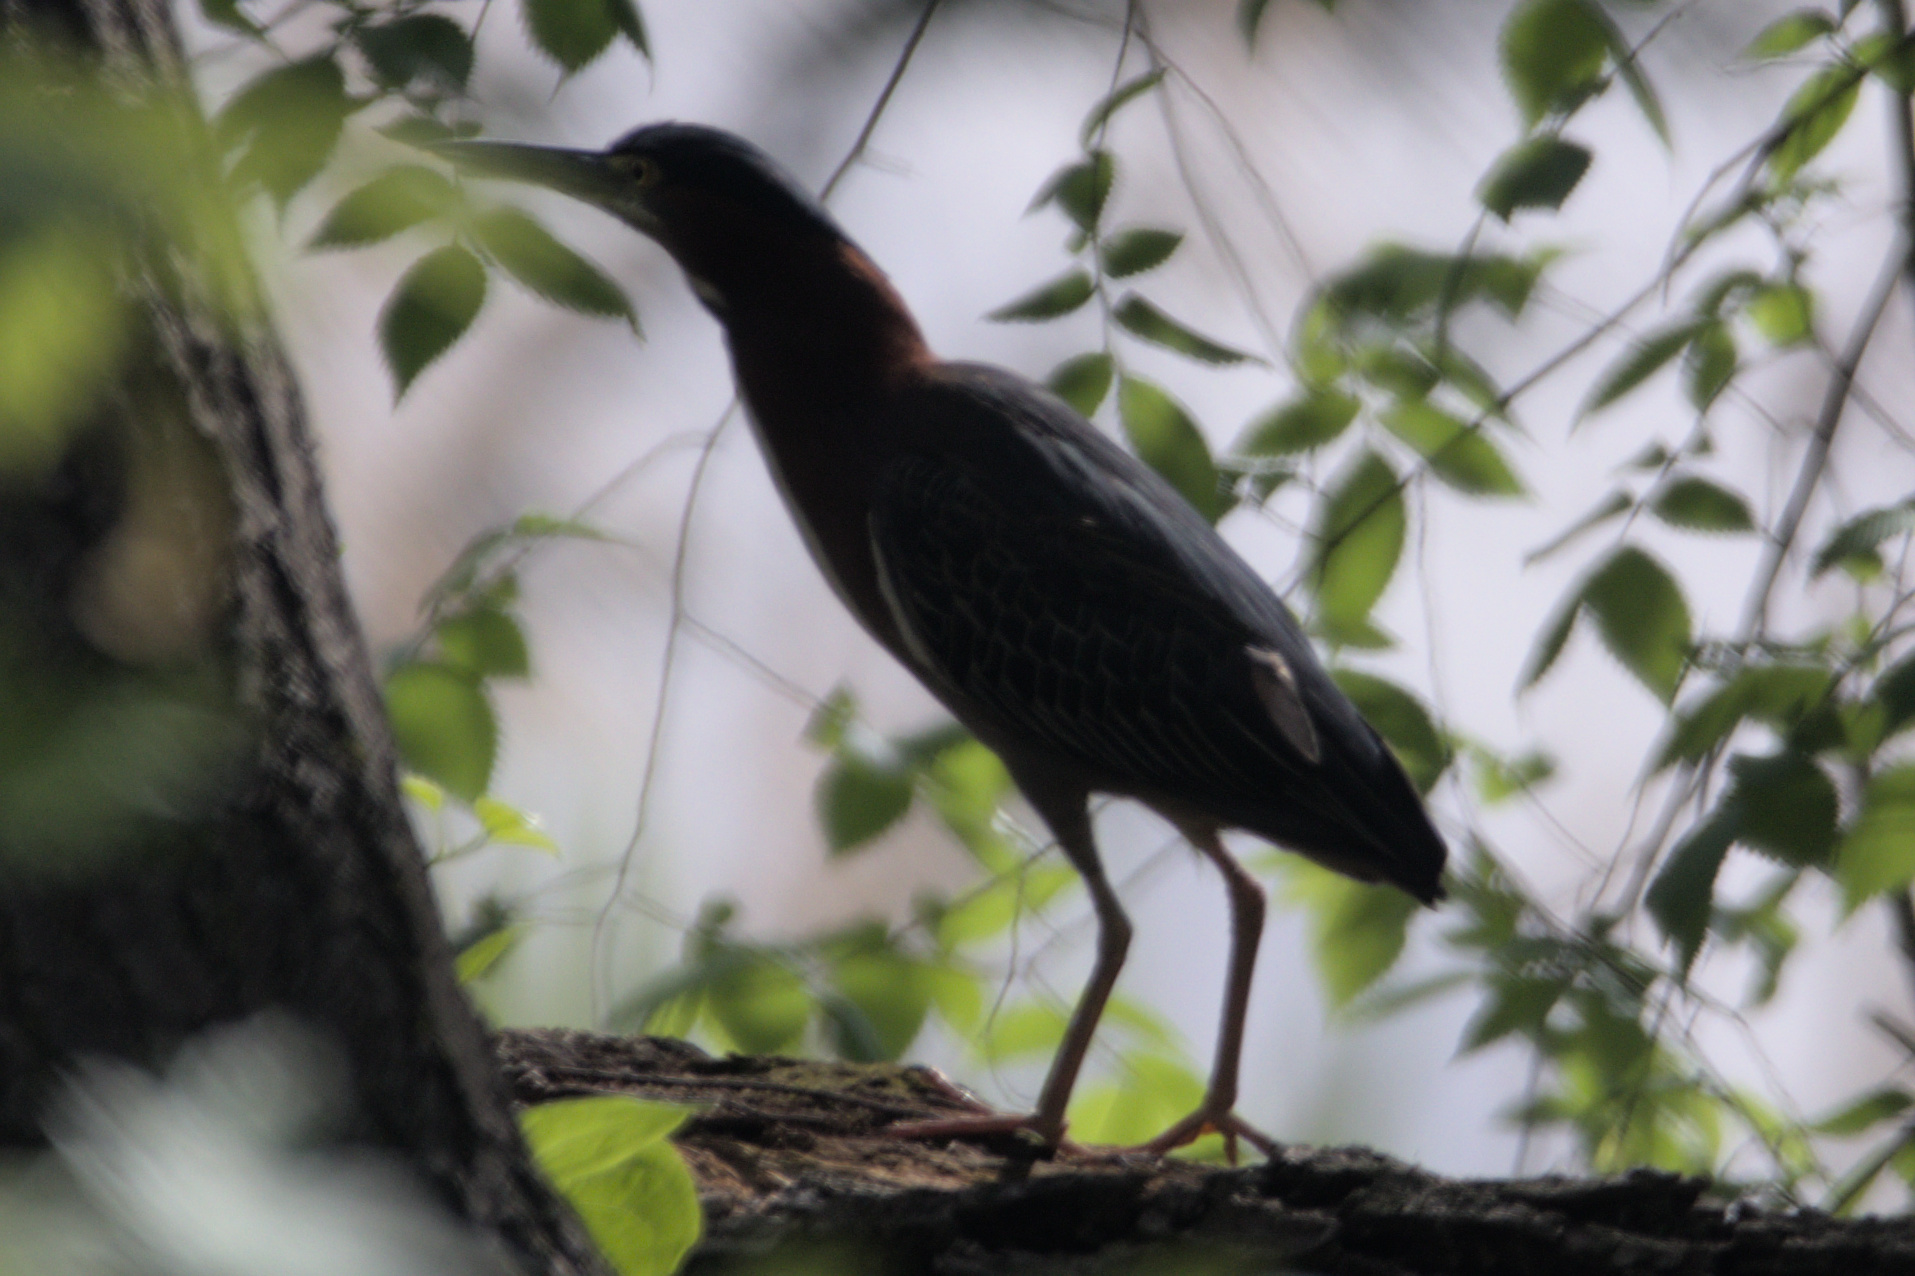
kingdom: Animalia
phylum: Chordata
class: Aves
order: Pelecaniformes
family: Ardeidae
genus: Butorides
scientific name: Butorides virescens
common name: Green heron
